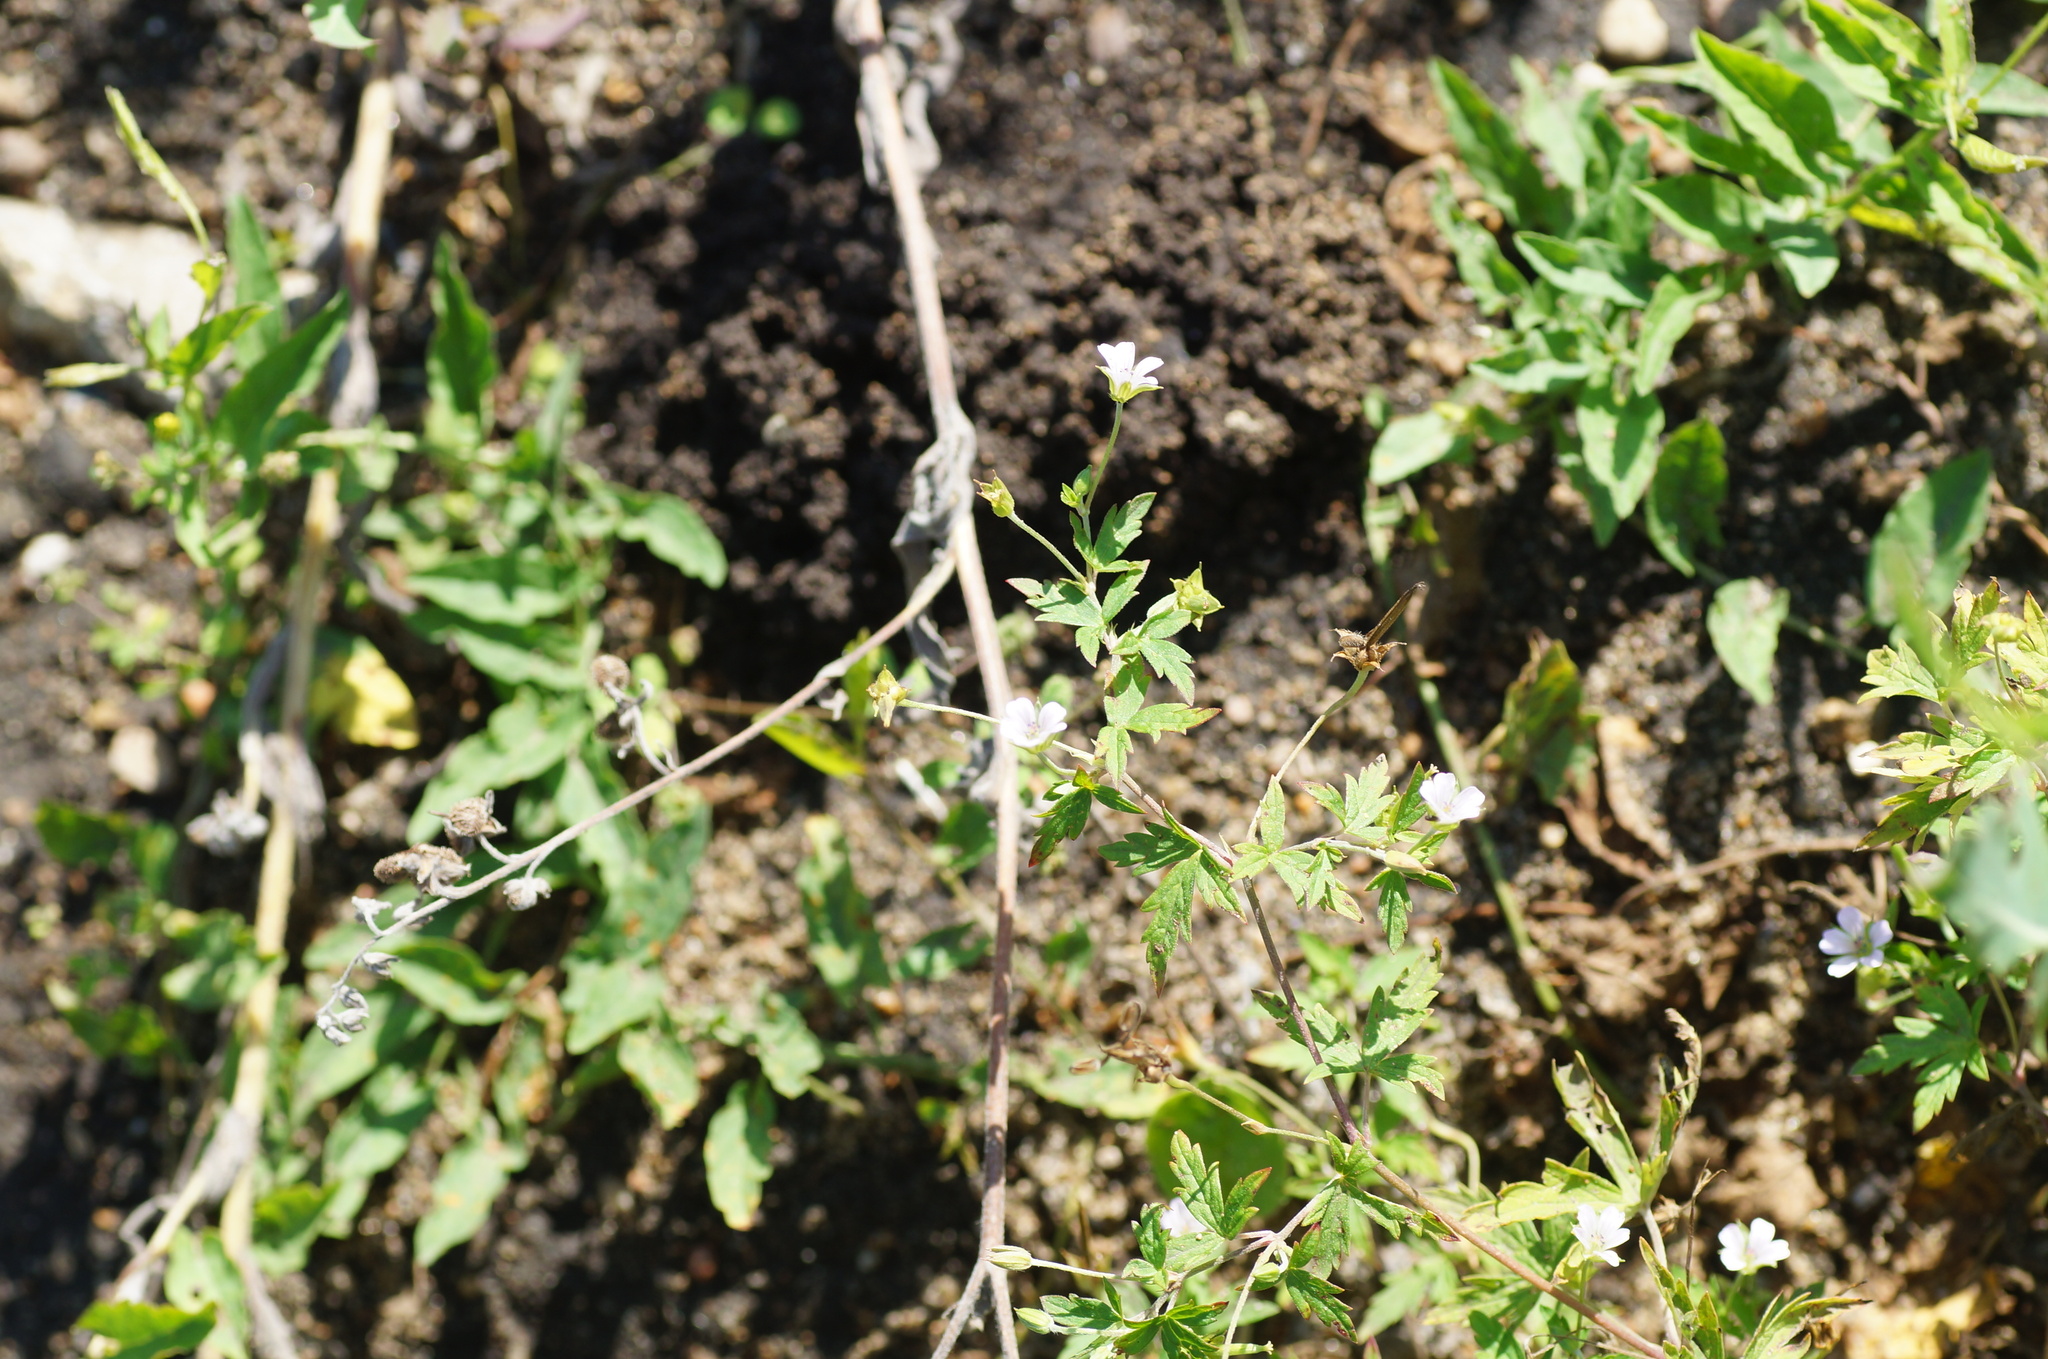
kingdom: Plantae
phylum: Tracheophyta
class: Magnoliopsida
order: Geraniales
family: Geraniaceae
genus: Geranium
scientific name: Geranium sibiricum
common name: Siberian crane's-bill
